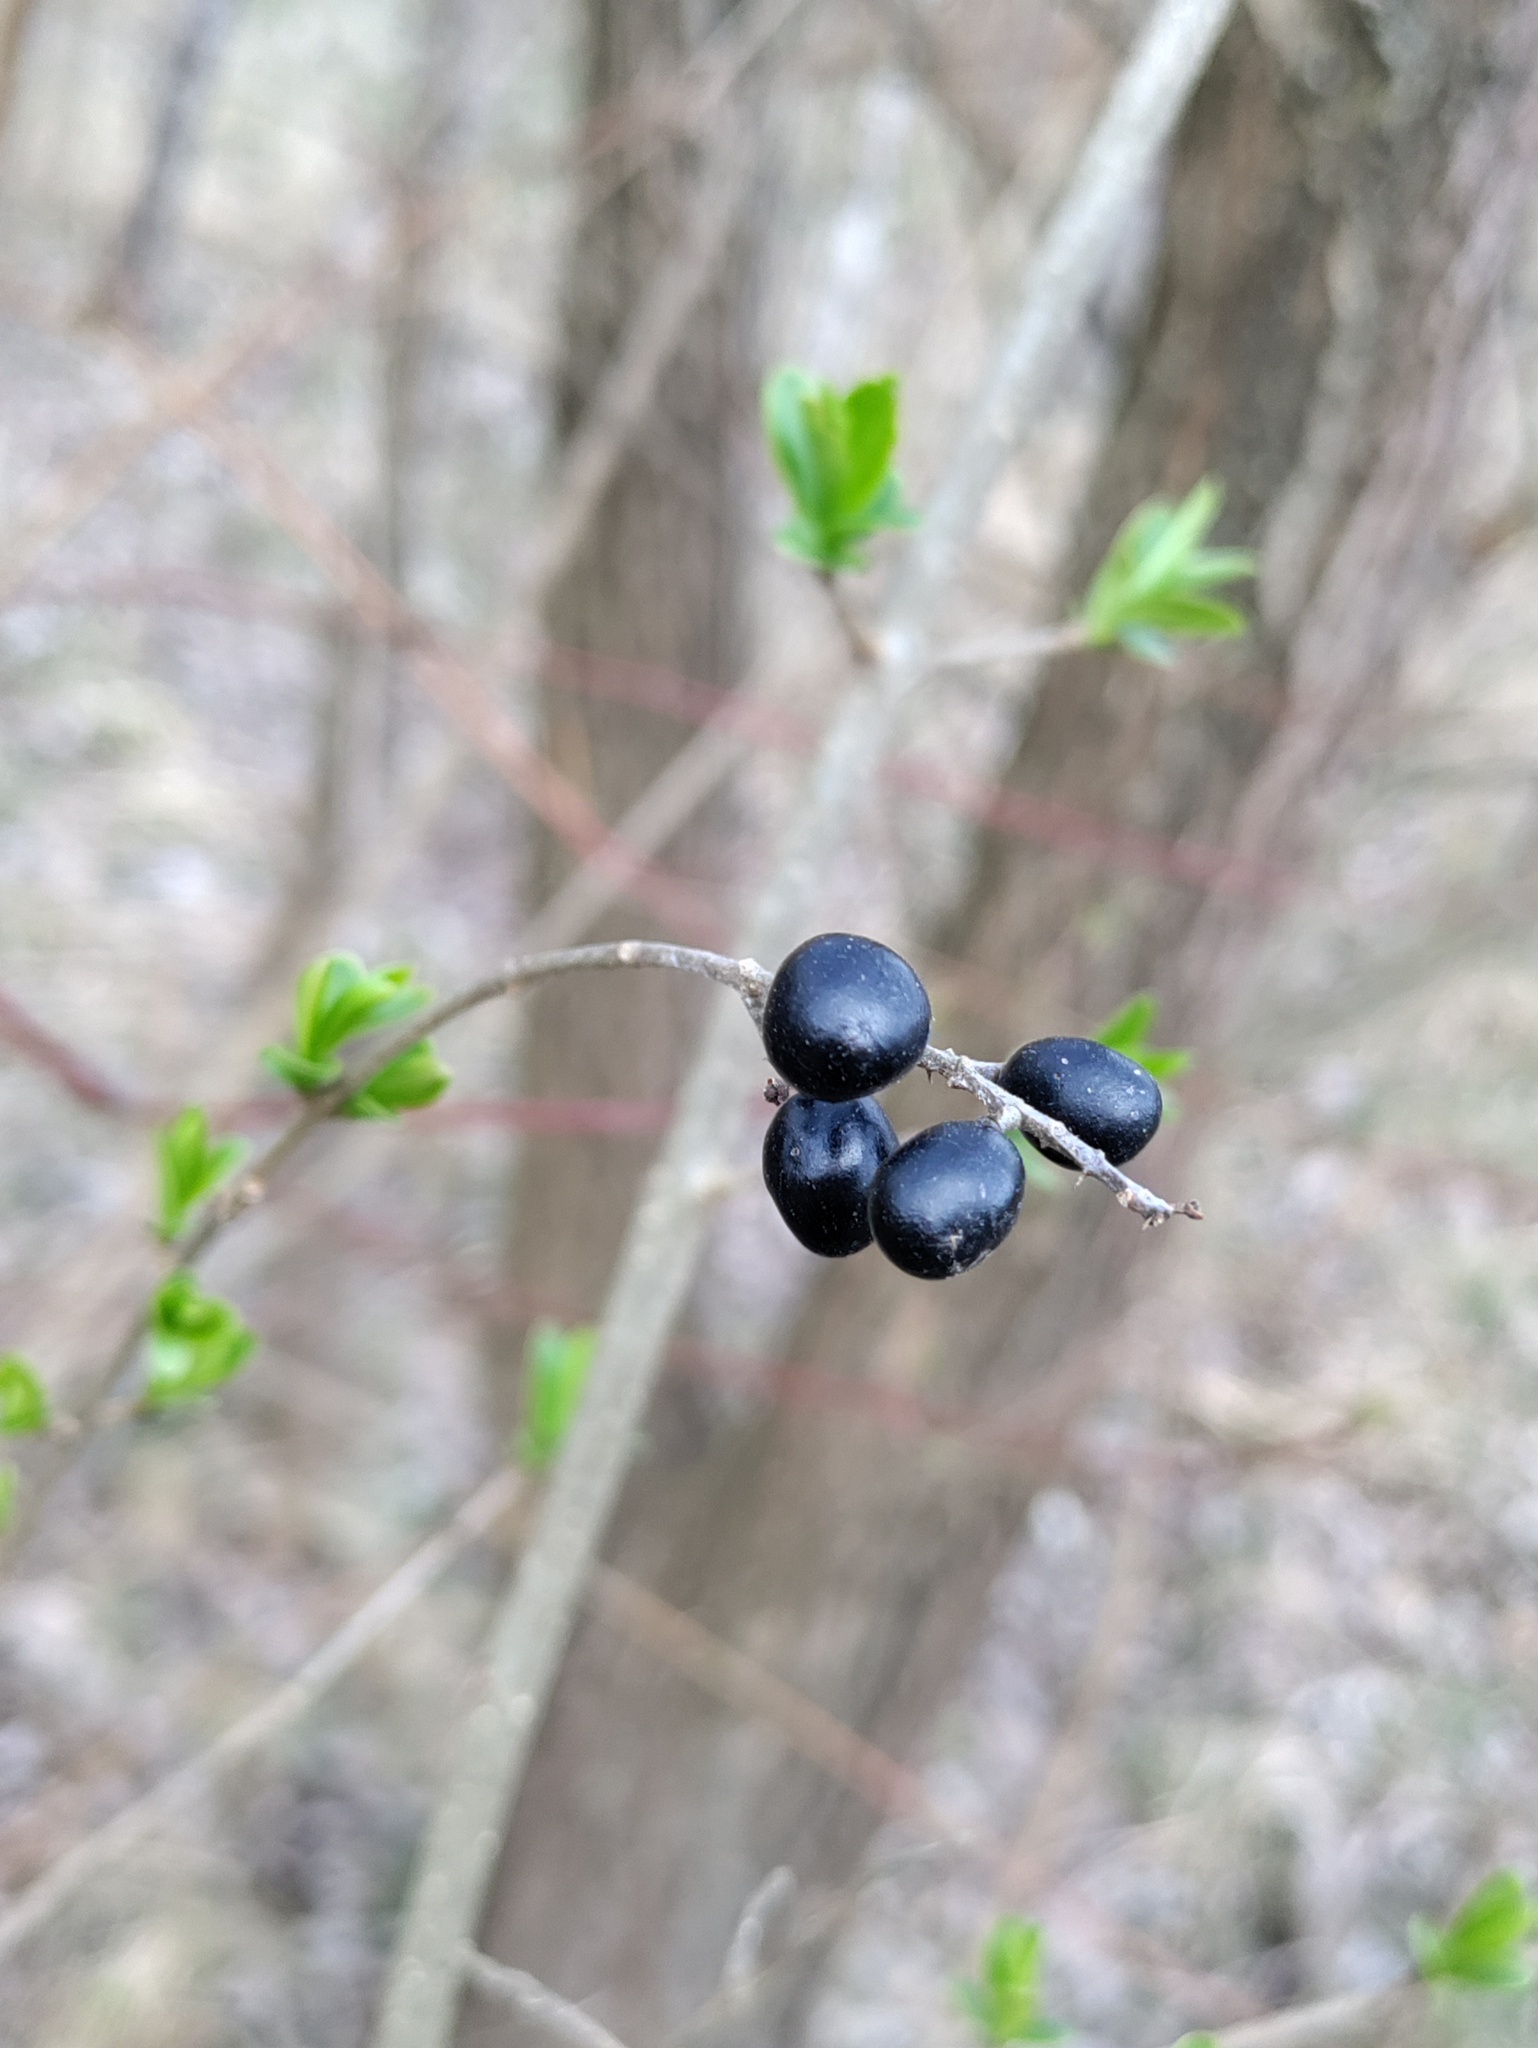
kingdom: Plantae
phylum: Tracheophyta
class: Magnoliopsida
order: Lamiales
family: Oleaceae
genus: Ligustrum
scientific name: Ligustrum vulgare
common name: Wild privet
